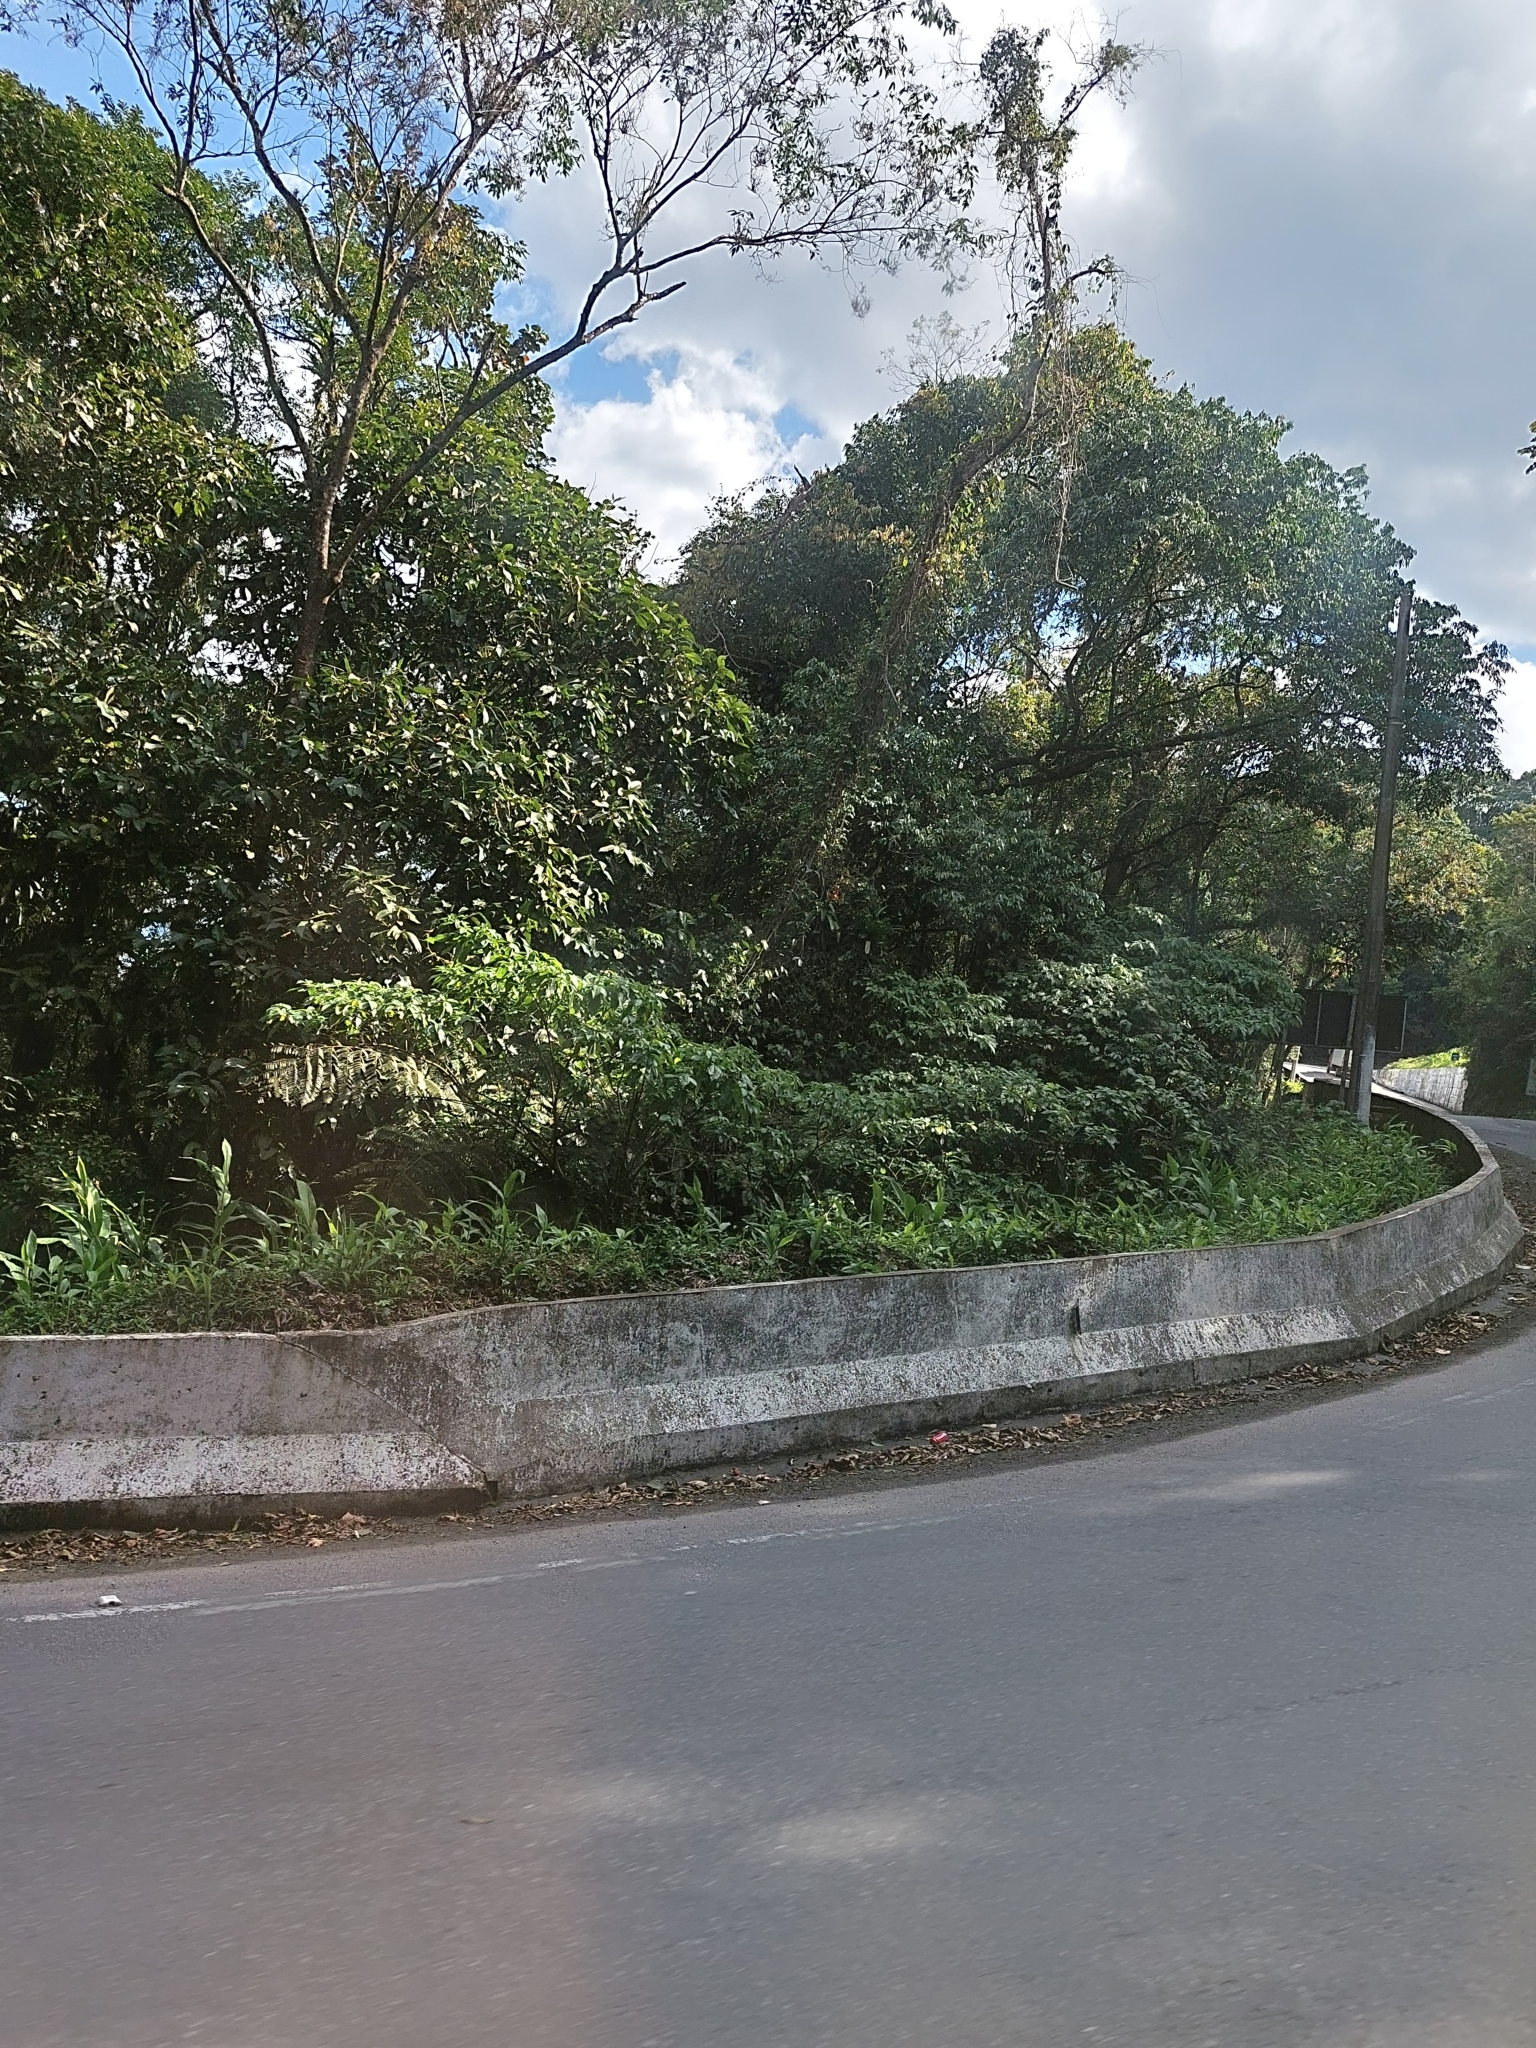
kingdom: Plantae
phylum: Tracheophyta
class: Liliopsida
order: Zingiberales
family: Zingiberaceae
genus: Hedychium
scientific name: Hedychium coronarium
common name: White garland-lily
